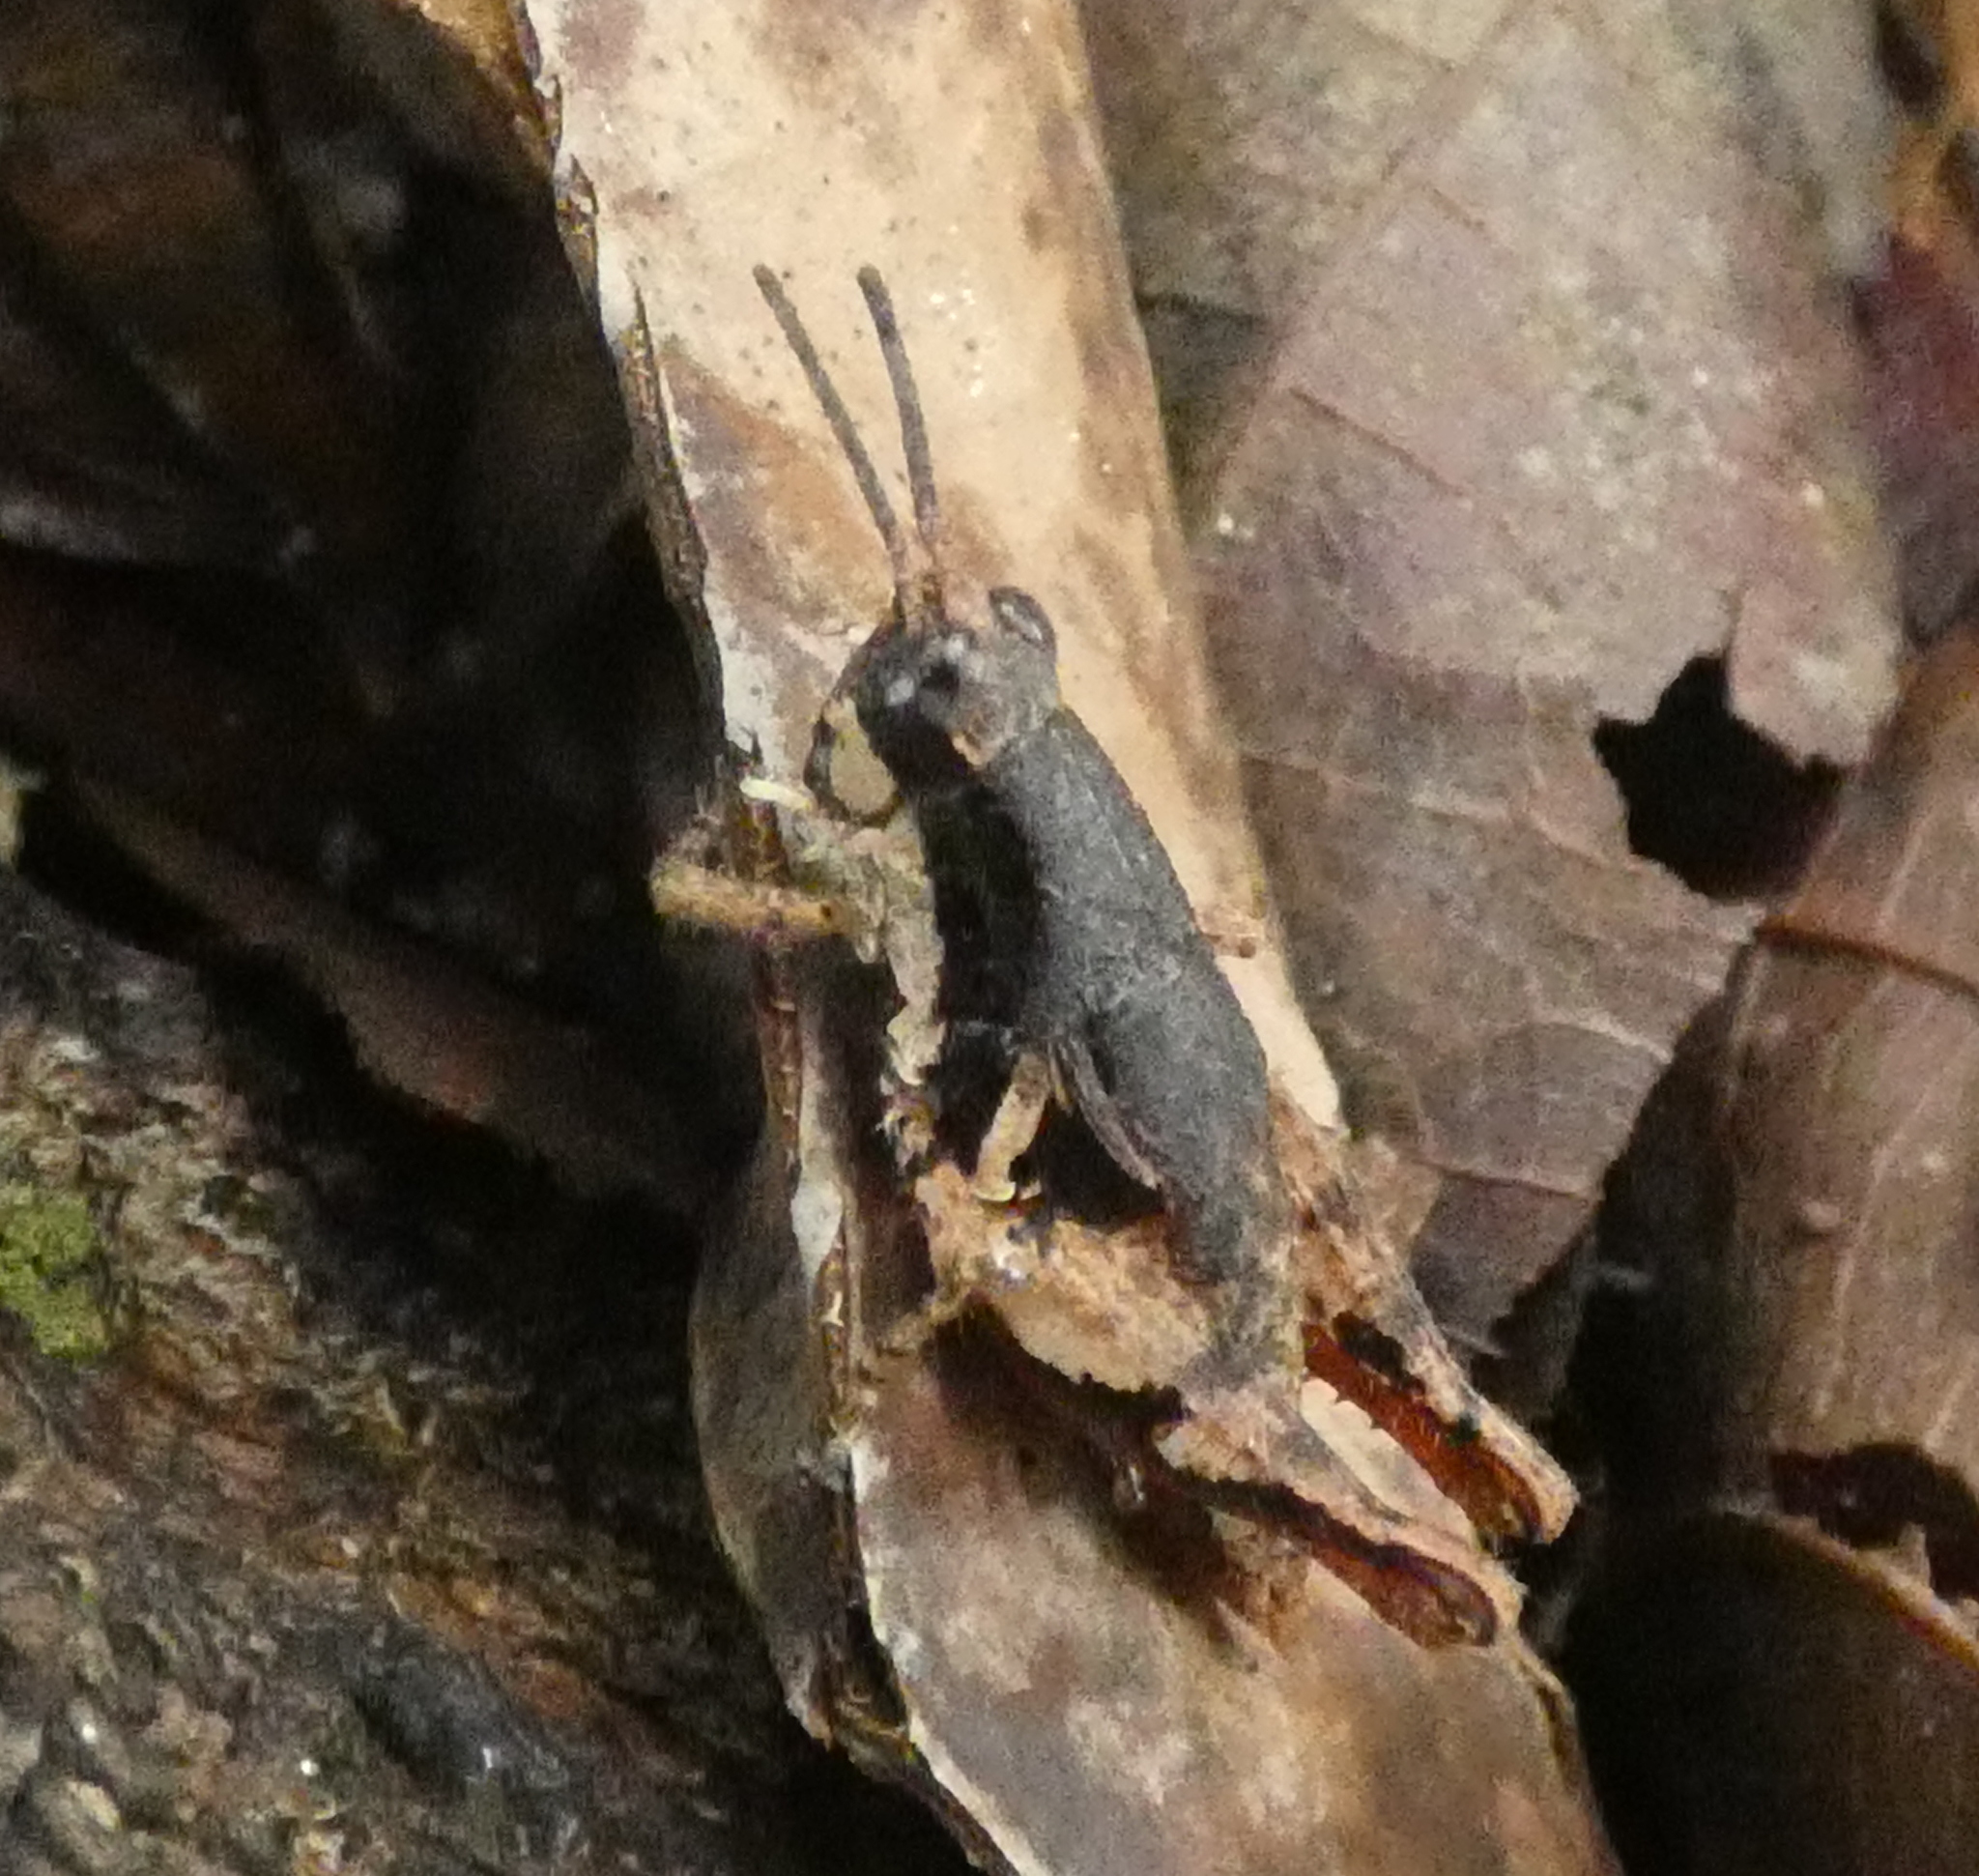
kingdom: Animalia
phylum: Arthropoda
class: Insecta
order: Orthoptera
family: Acrididae
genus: Eujivarus
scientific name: Eujivarus meridionalis
